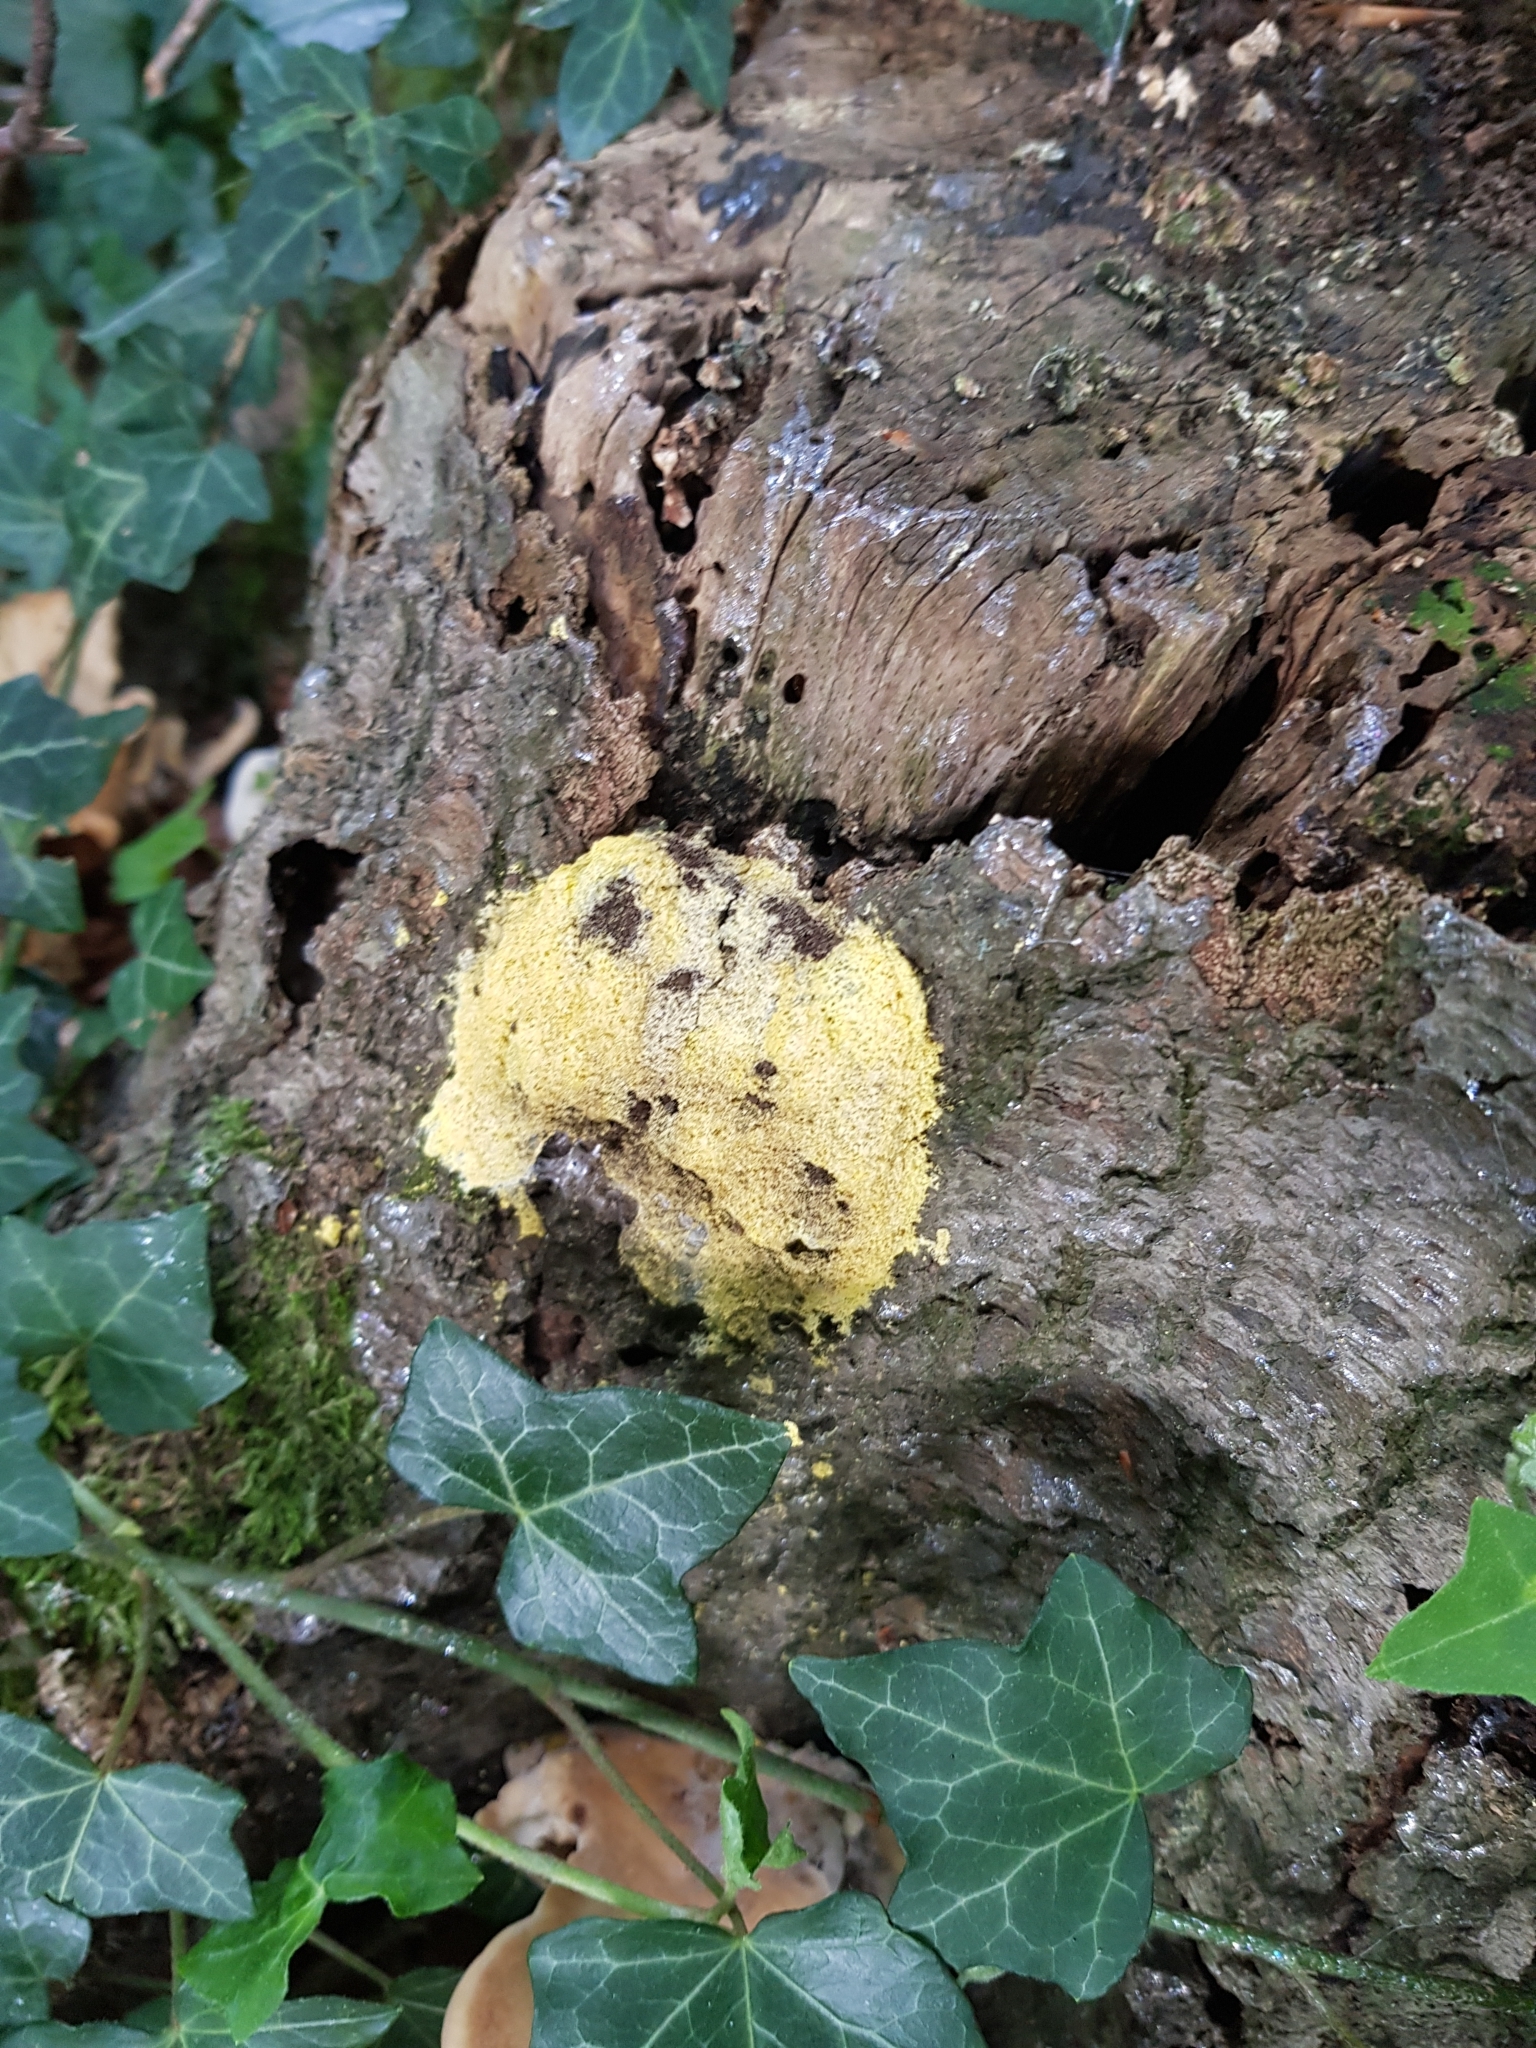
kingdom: Protozoa
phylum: Mycetozoa
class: Myxomycetes
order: Physarales
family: Physaraceae
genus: Fuligo
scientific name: Fuligo septica
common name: Dog vomit slime mold
